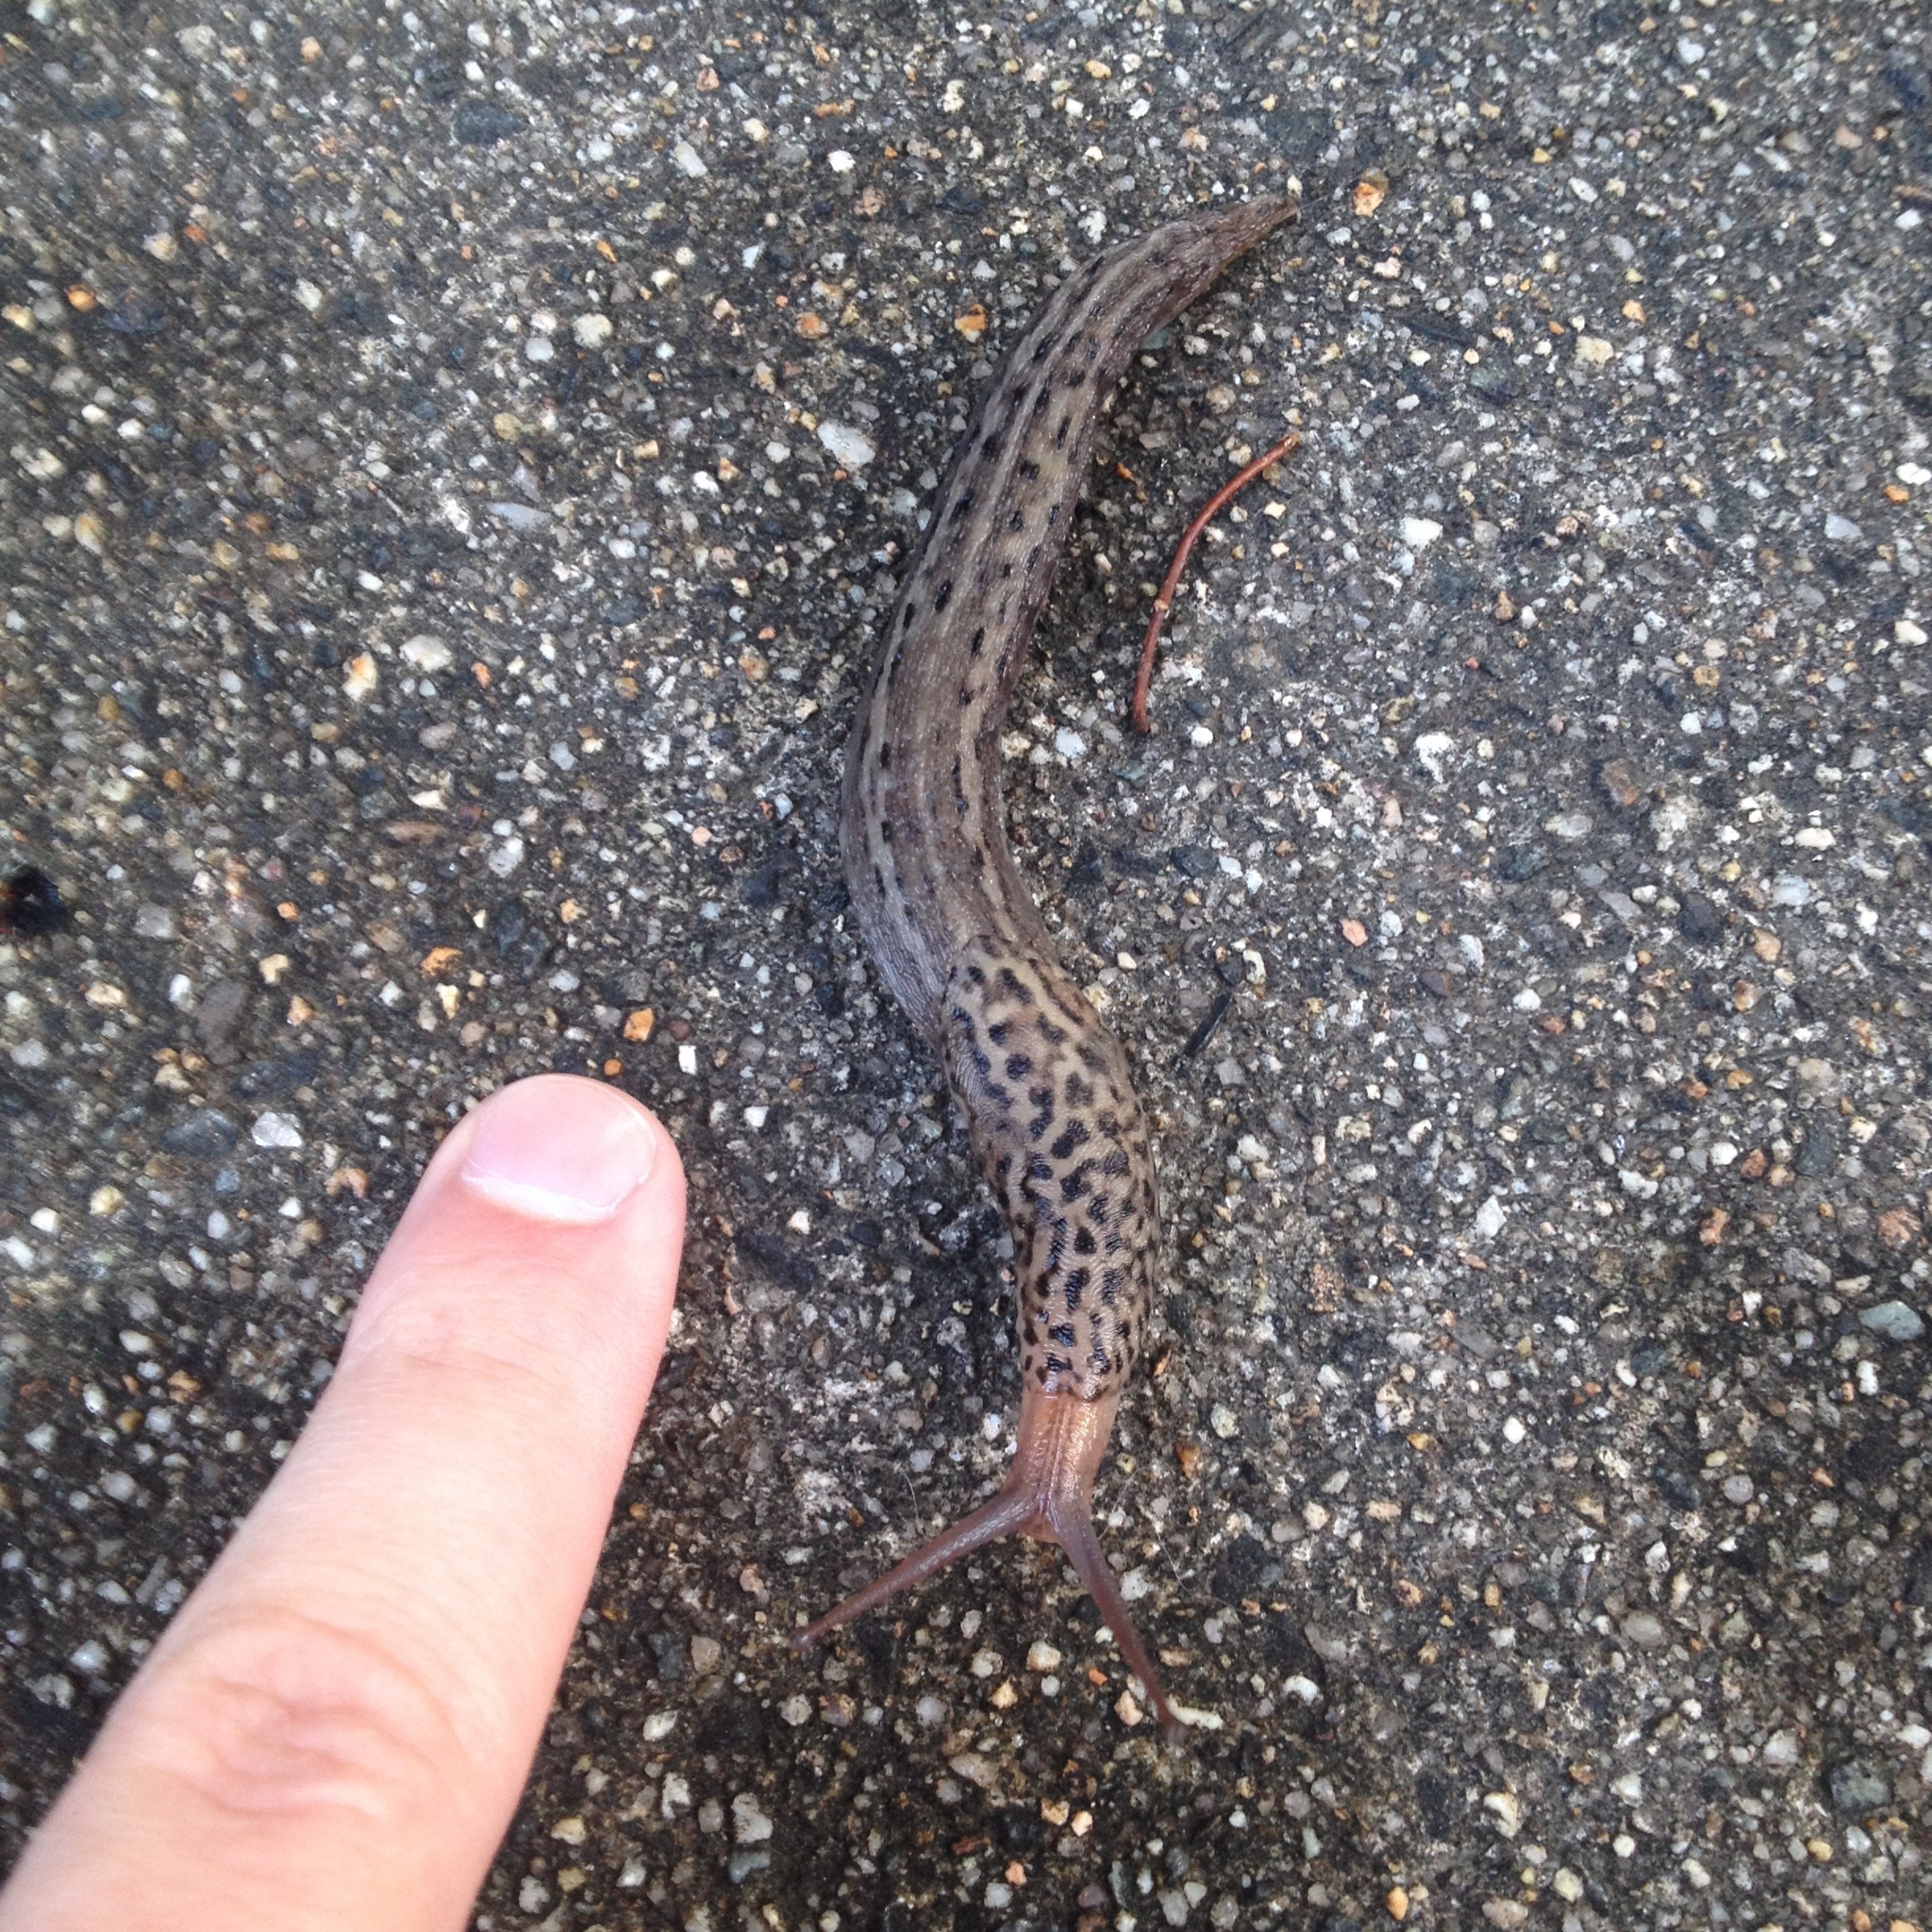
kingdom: Animalia
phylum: Mollusca
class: Gastropoda
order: Stylommatophora
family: Limacidae
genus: Limax
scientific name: Limax maximus
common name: Great grey slug
